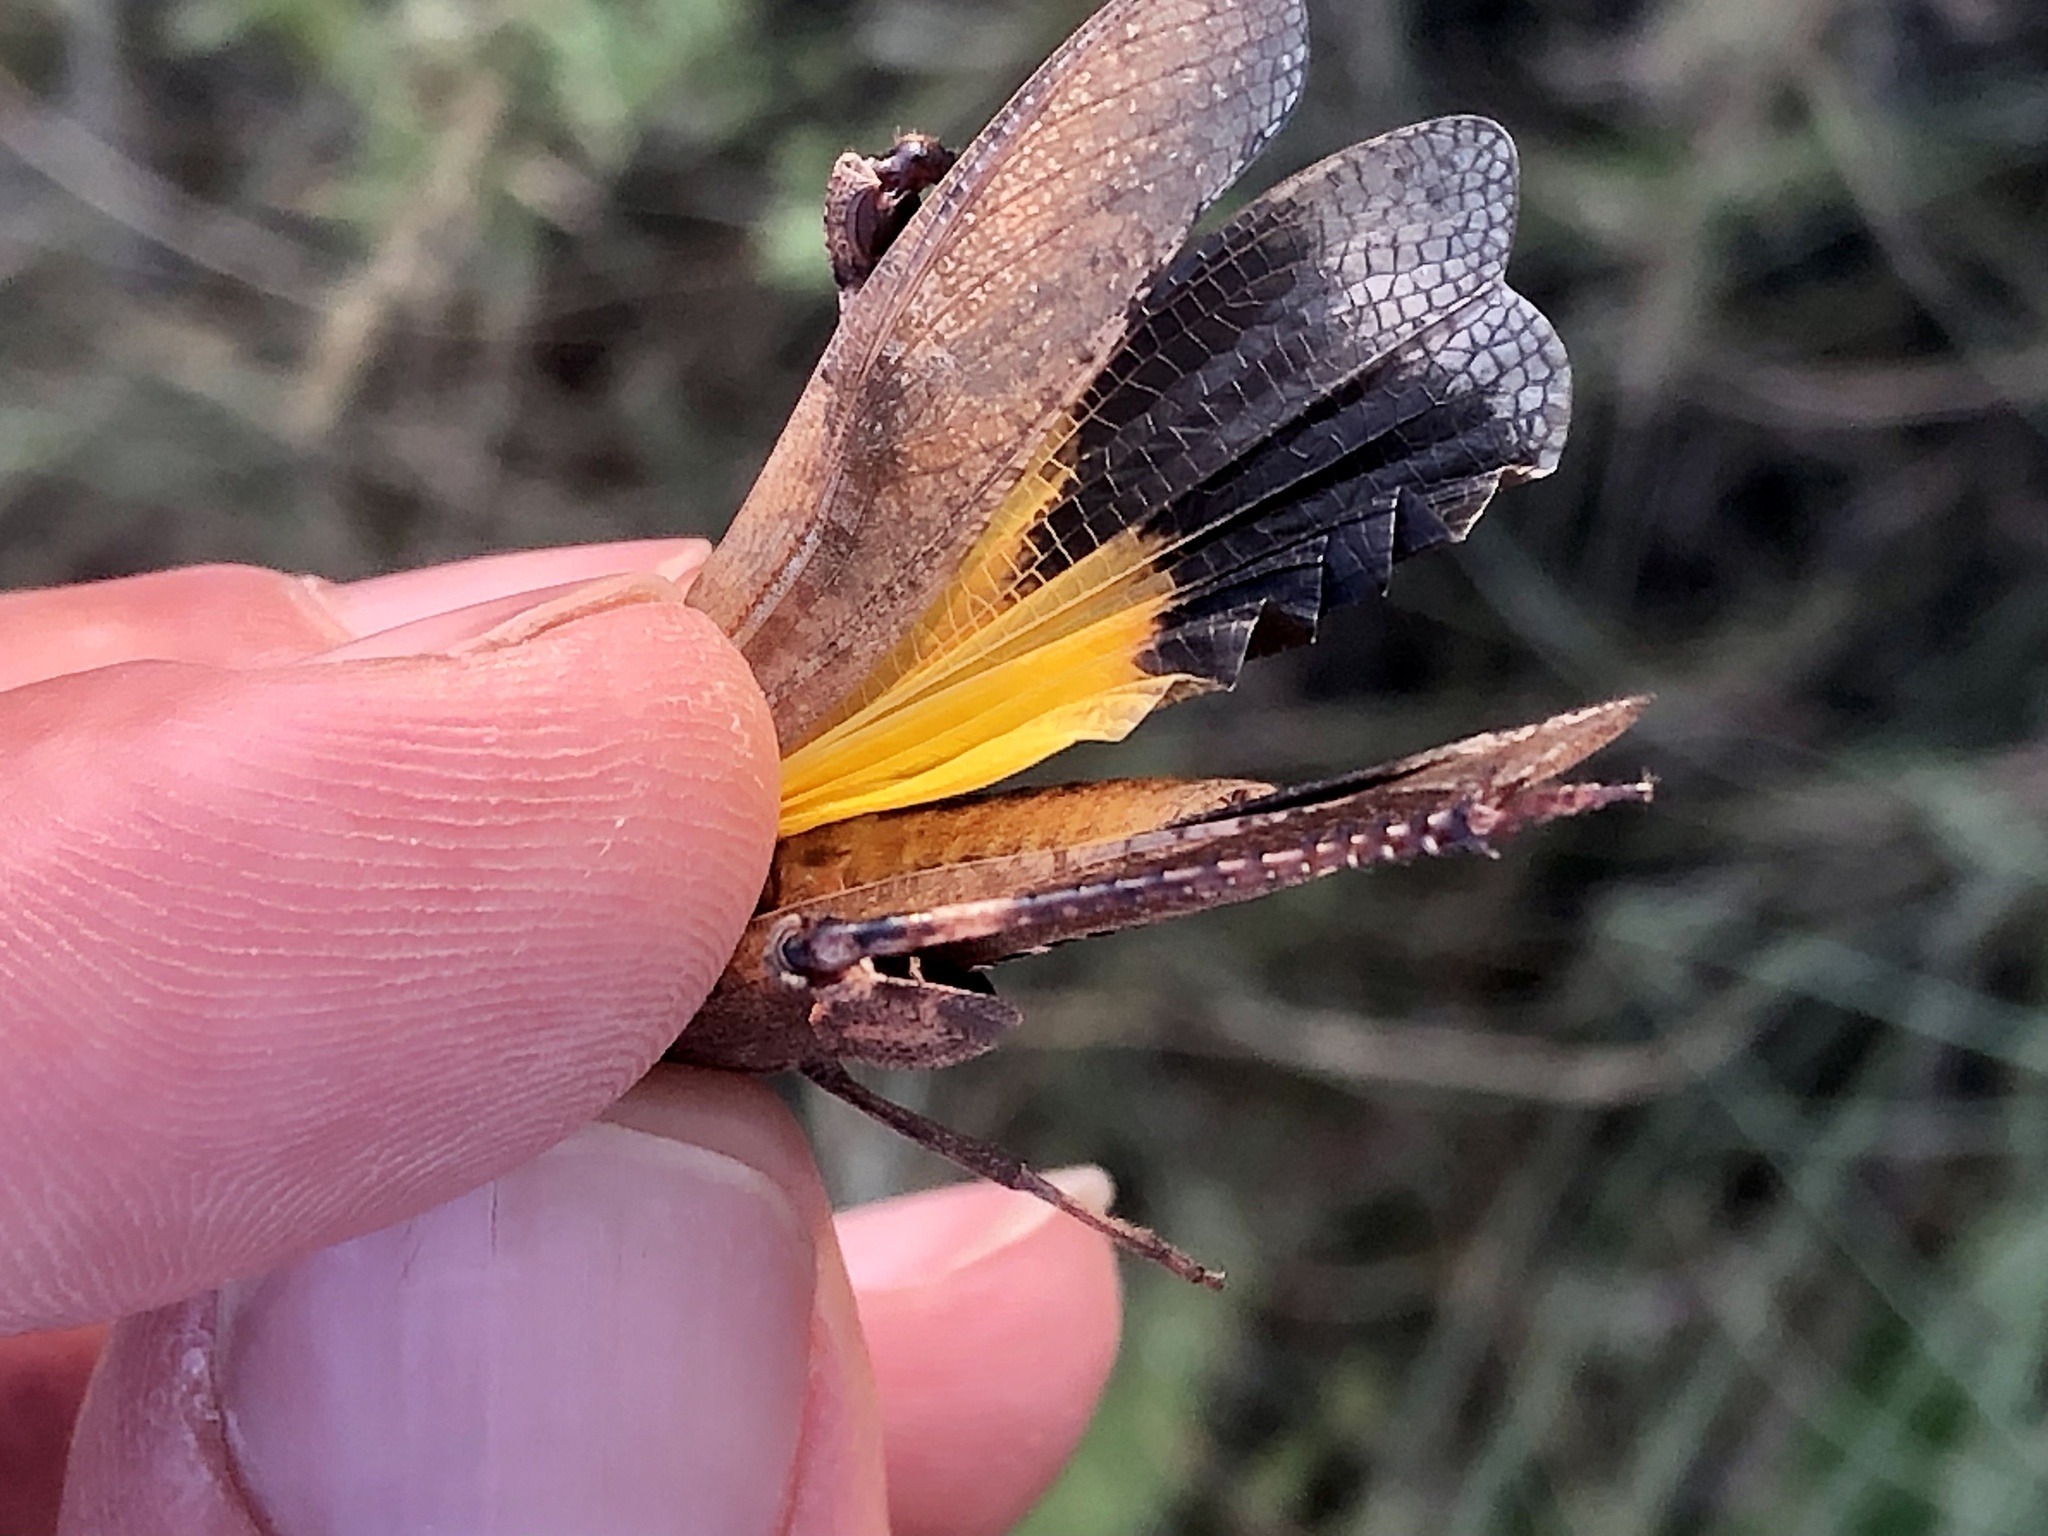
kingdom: Animalia
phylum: Arthropoda
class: Insecta
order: Orthoptera
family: Acrididae
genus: Arphia
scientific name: Arphia xanthoptera
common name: Autumn yellow-winged grasshopper
